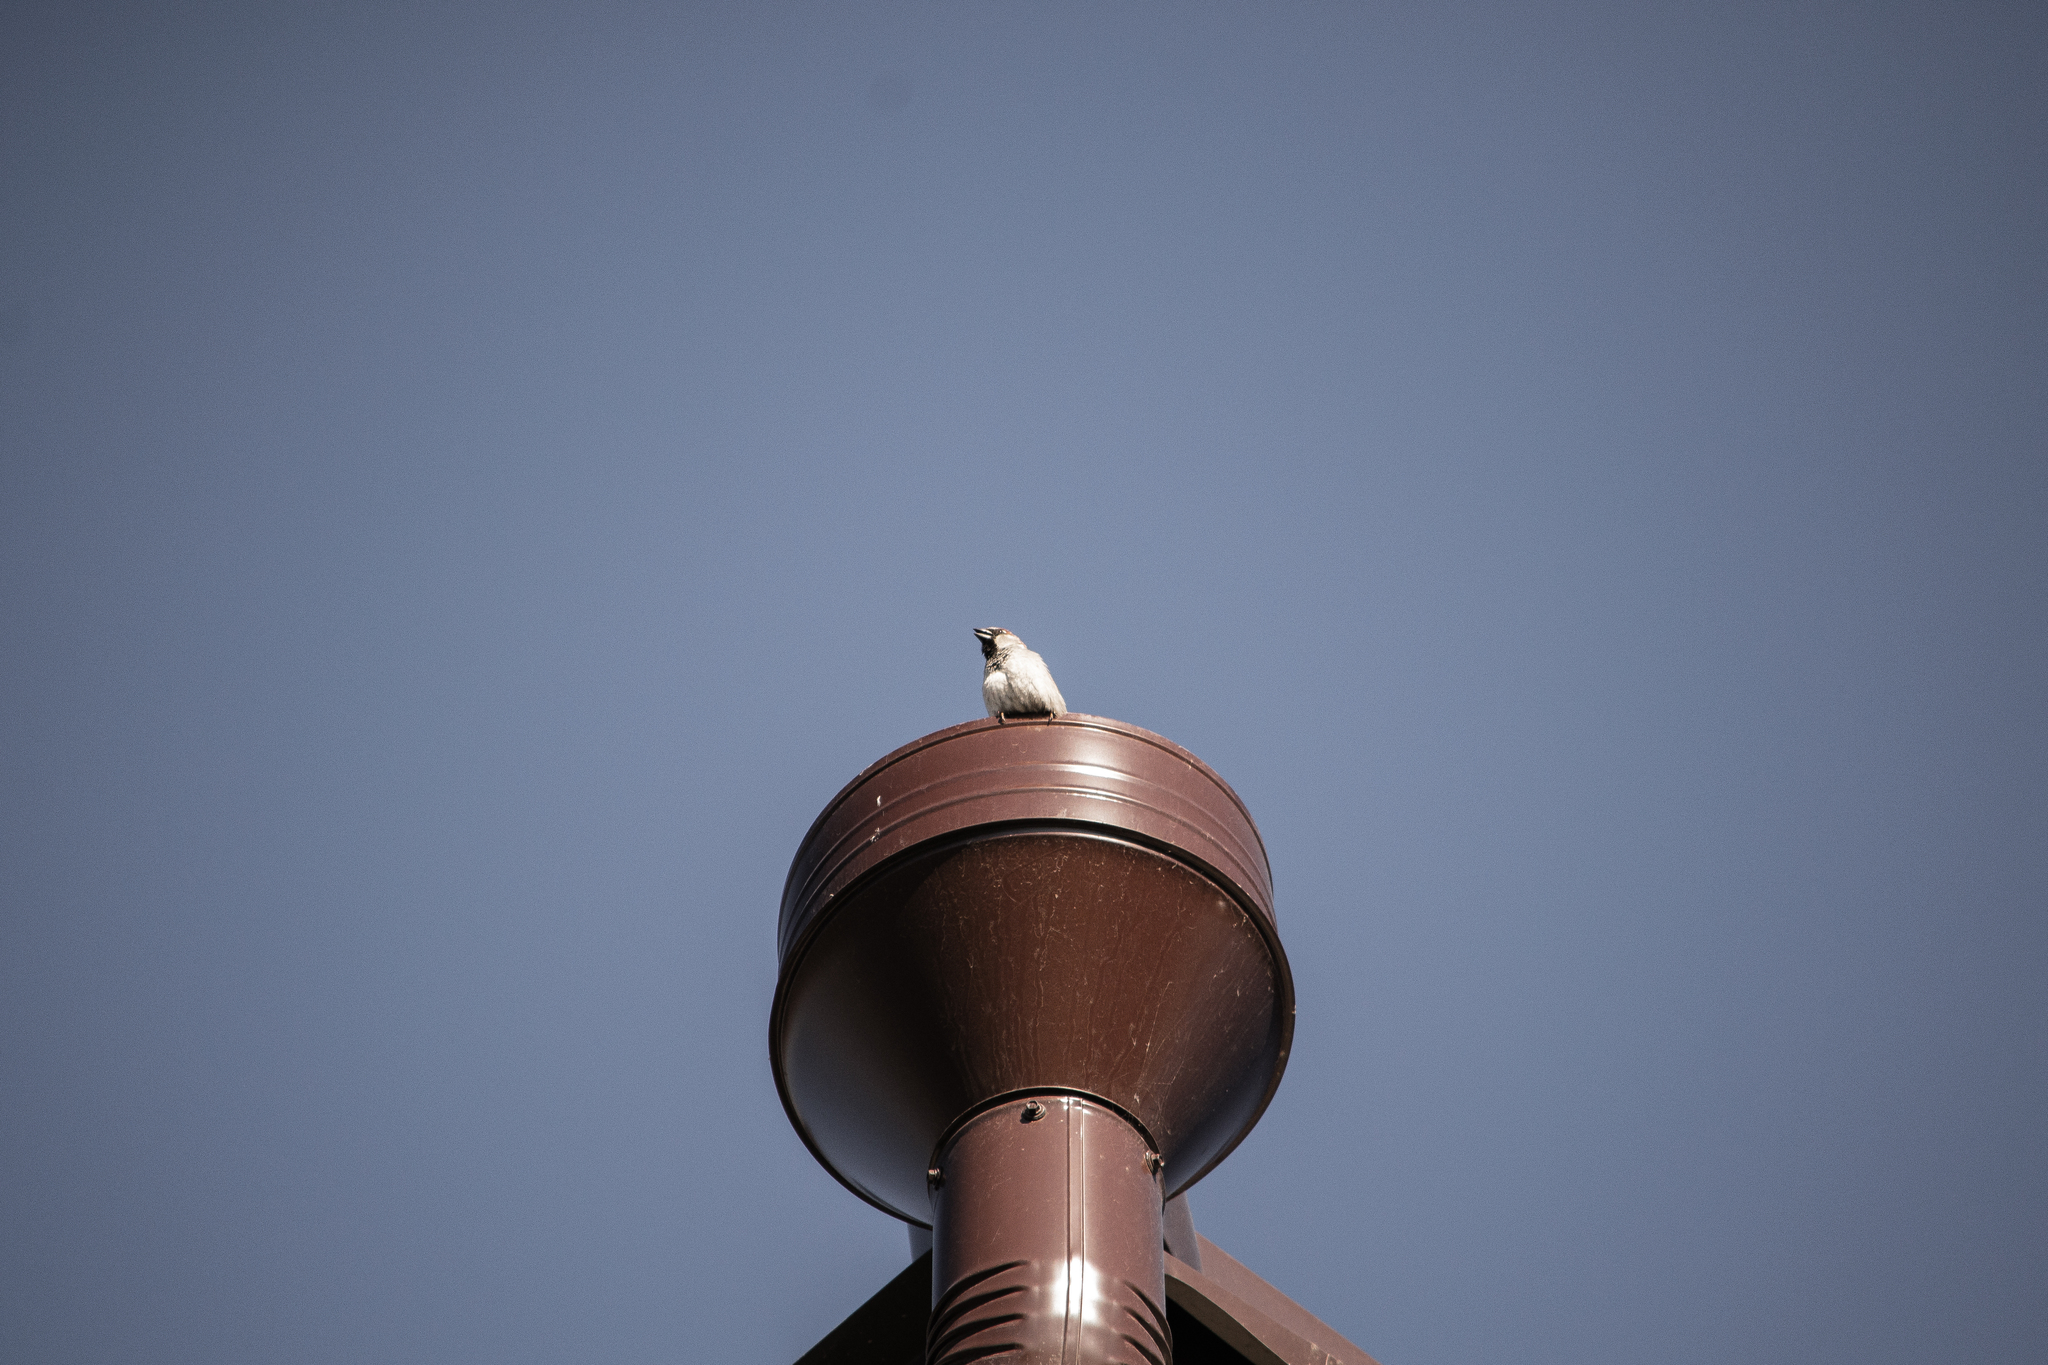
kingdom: Animalia
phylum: Chordata
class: Aves
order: Passeriformes
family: Passeridae
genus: Passer
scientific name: Passer domesticus
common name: House sparrow
